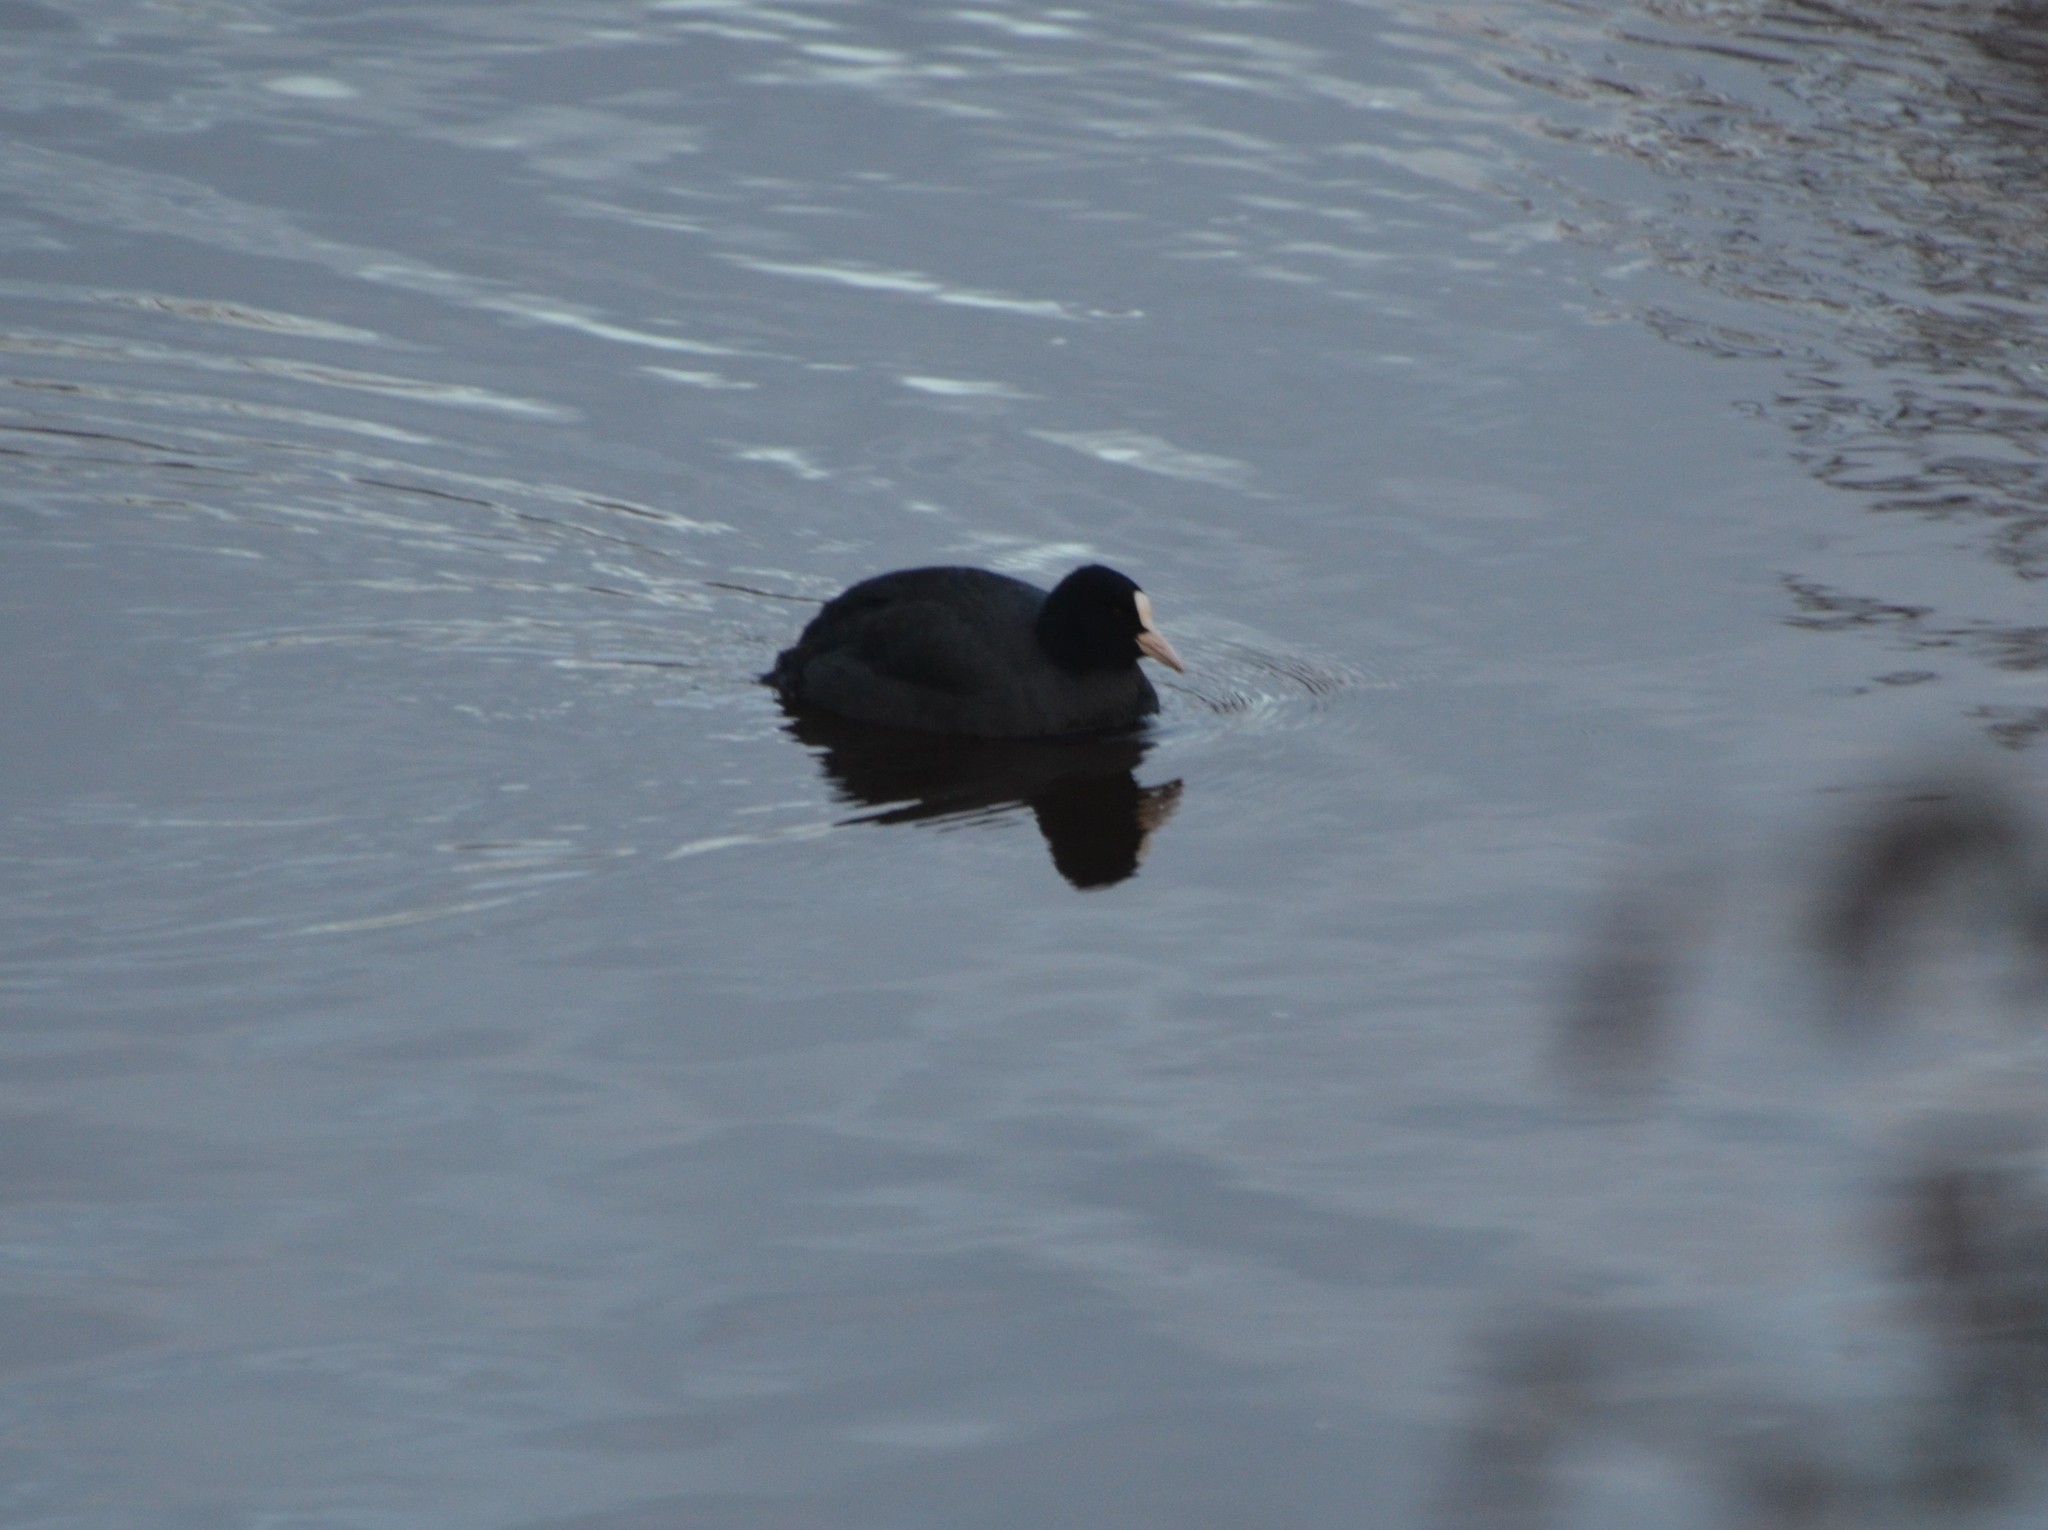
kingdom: Animalia
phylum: Chordata
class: Aves
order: Gruiformes
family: Rallidae
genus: Fulica
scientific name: Fulica atra
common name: Eurasian coot
